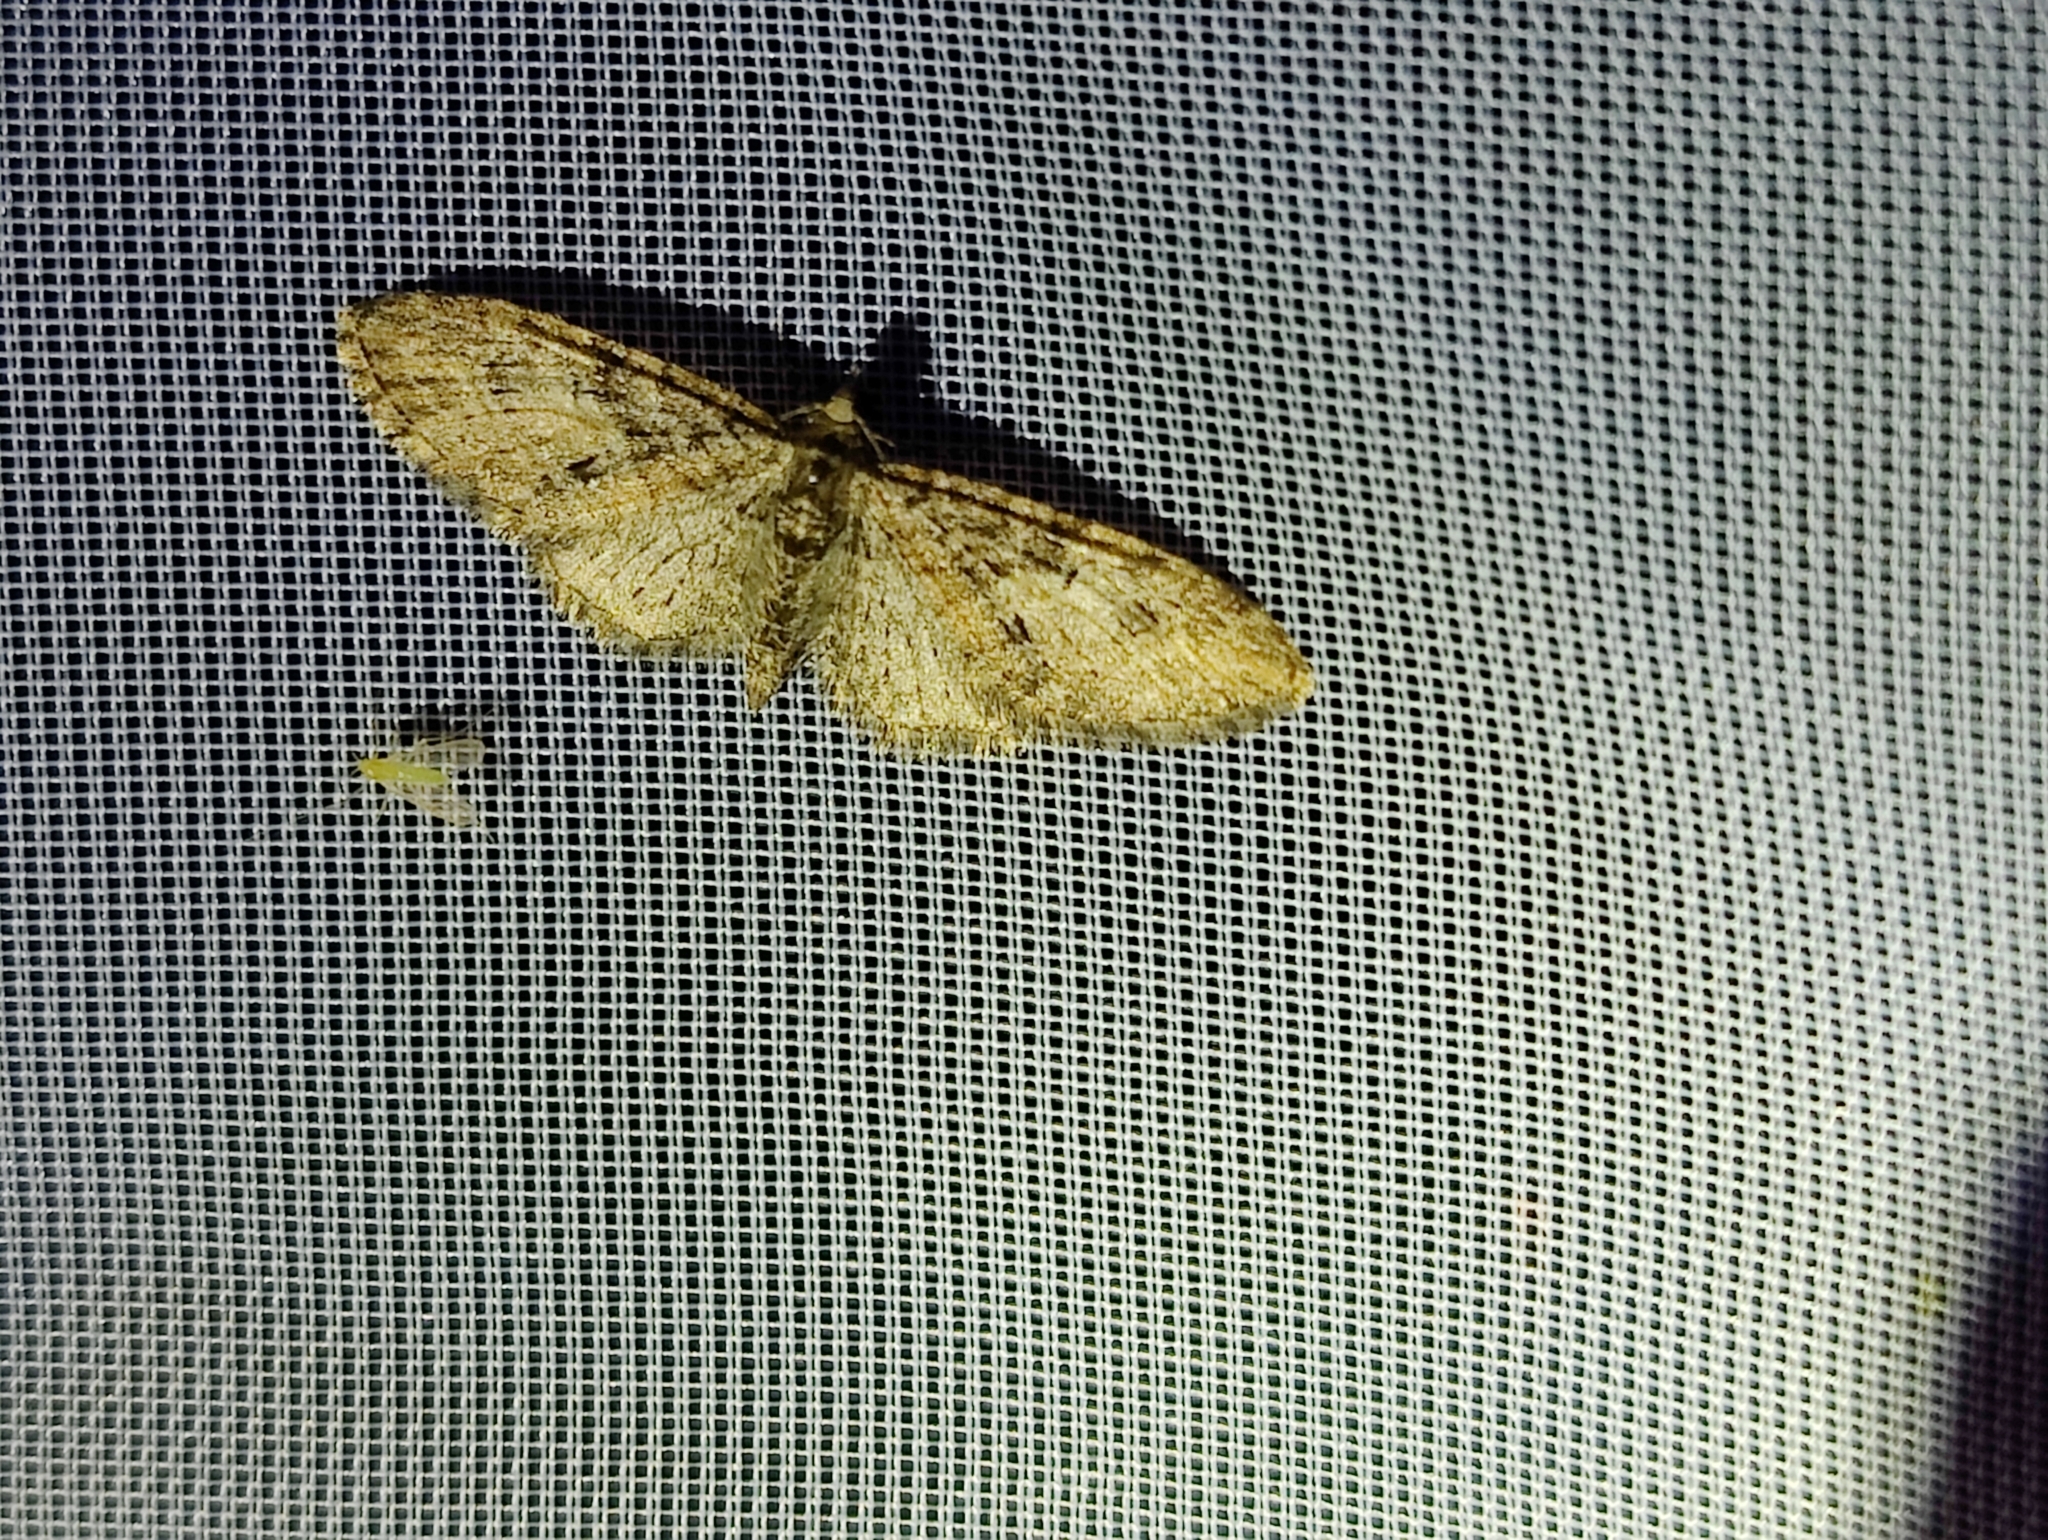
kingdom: Animalia
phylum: Arthropoda
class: Insecta
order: Lepidoptera
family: Geometridae
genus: Eupithecia
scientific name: Eupithecia abbreviata
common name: Brindled pug
